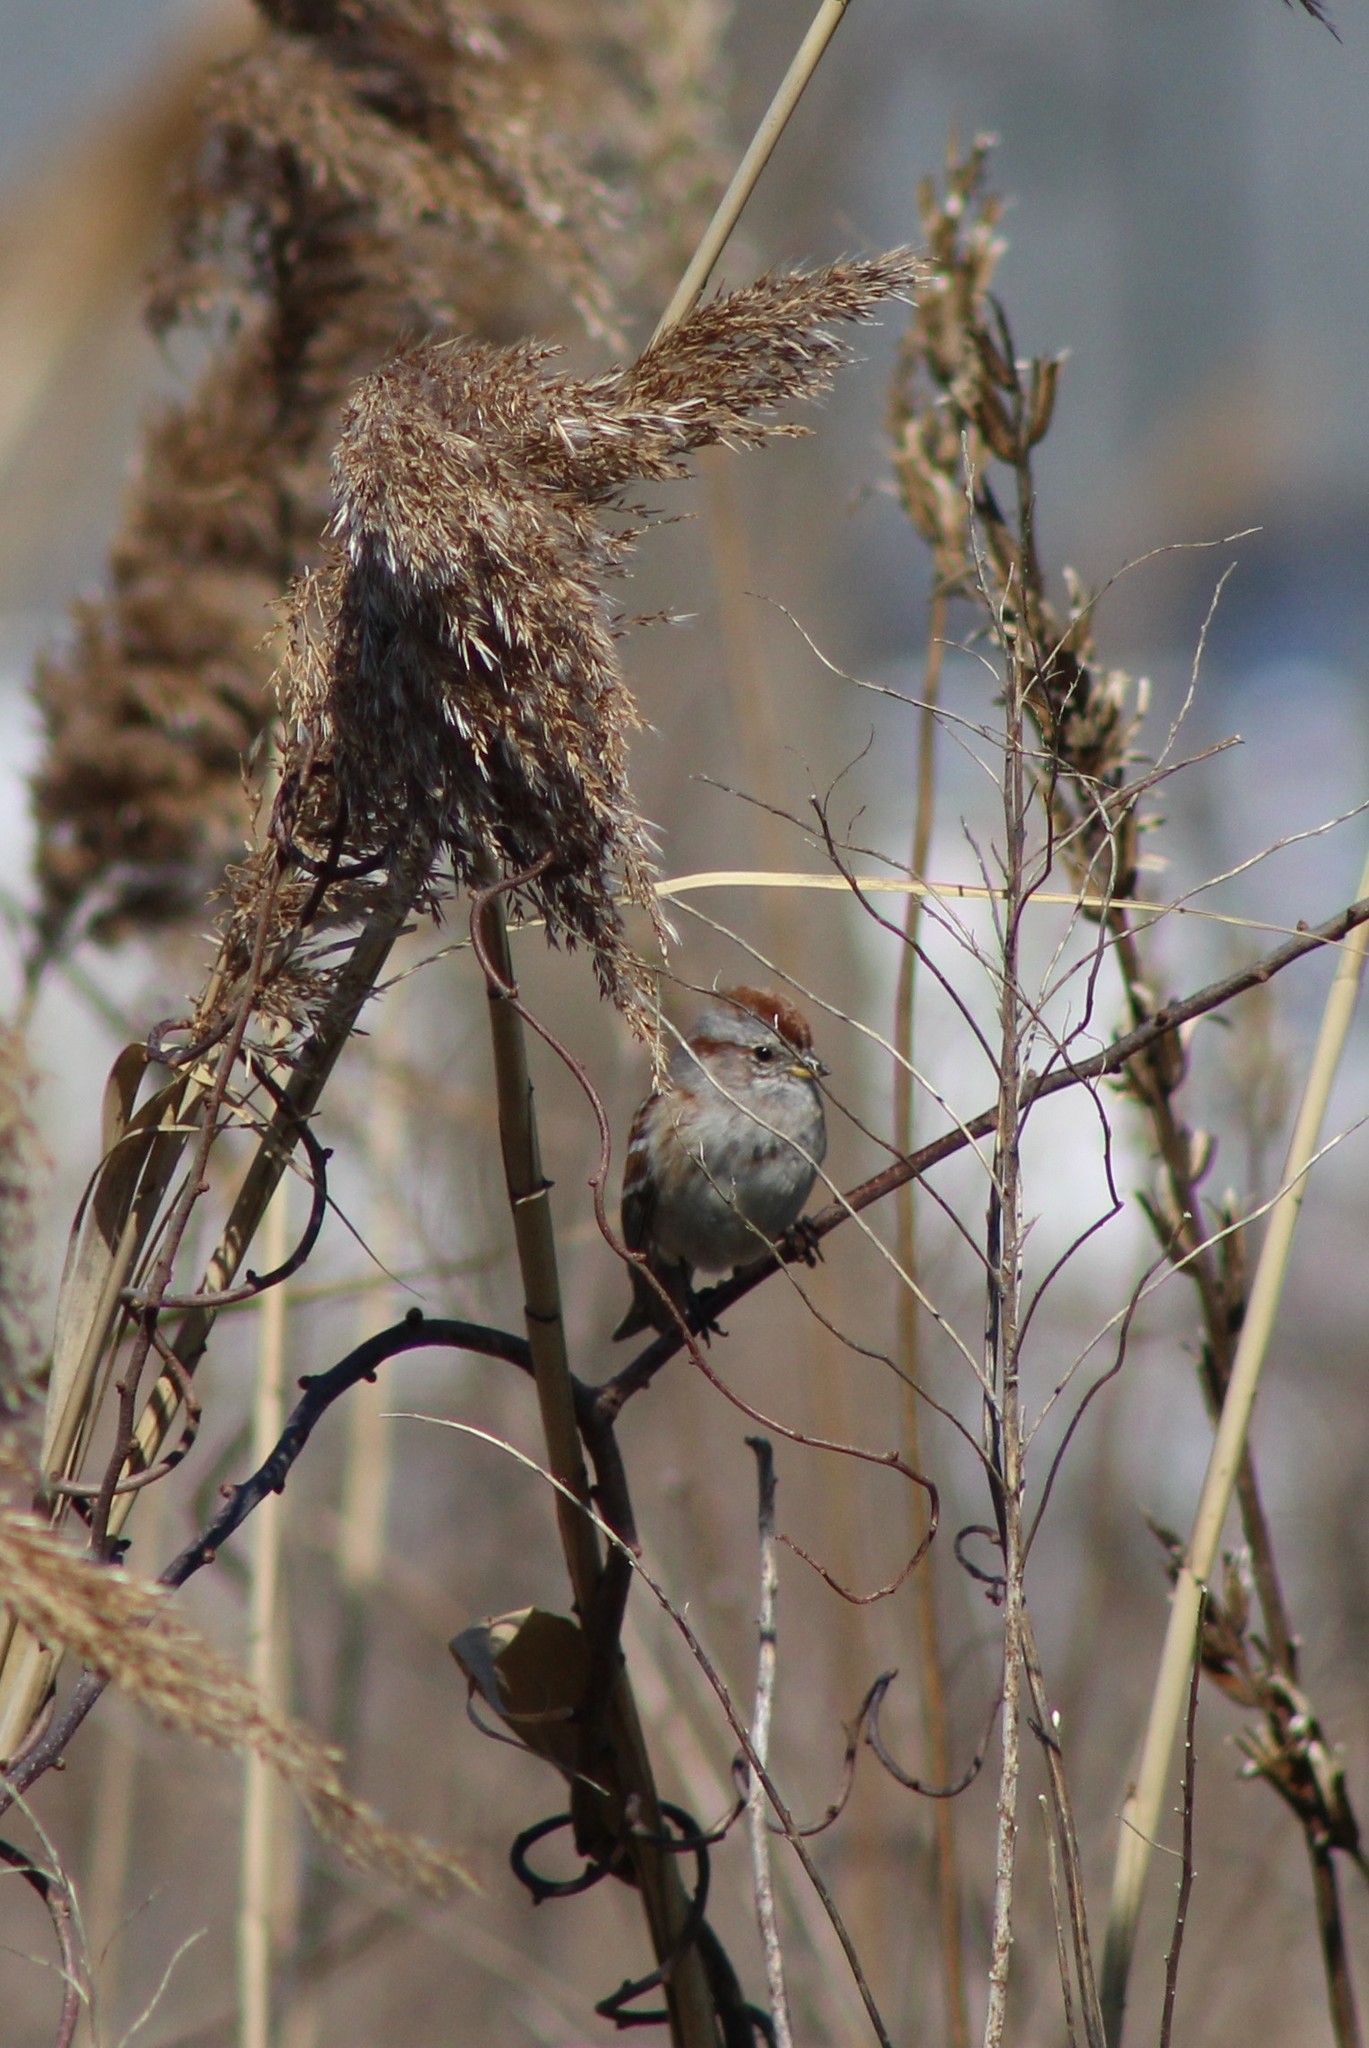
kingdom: Animalia
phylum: Chordata
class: Aves
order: Passeriformes
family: Passerellidae
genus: Spizelloides
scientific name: Spizelloides arborea
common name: American tree sparrow
